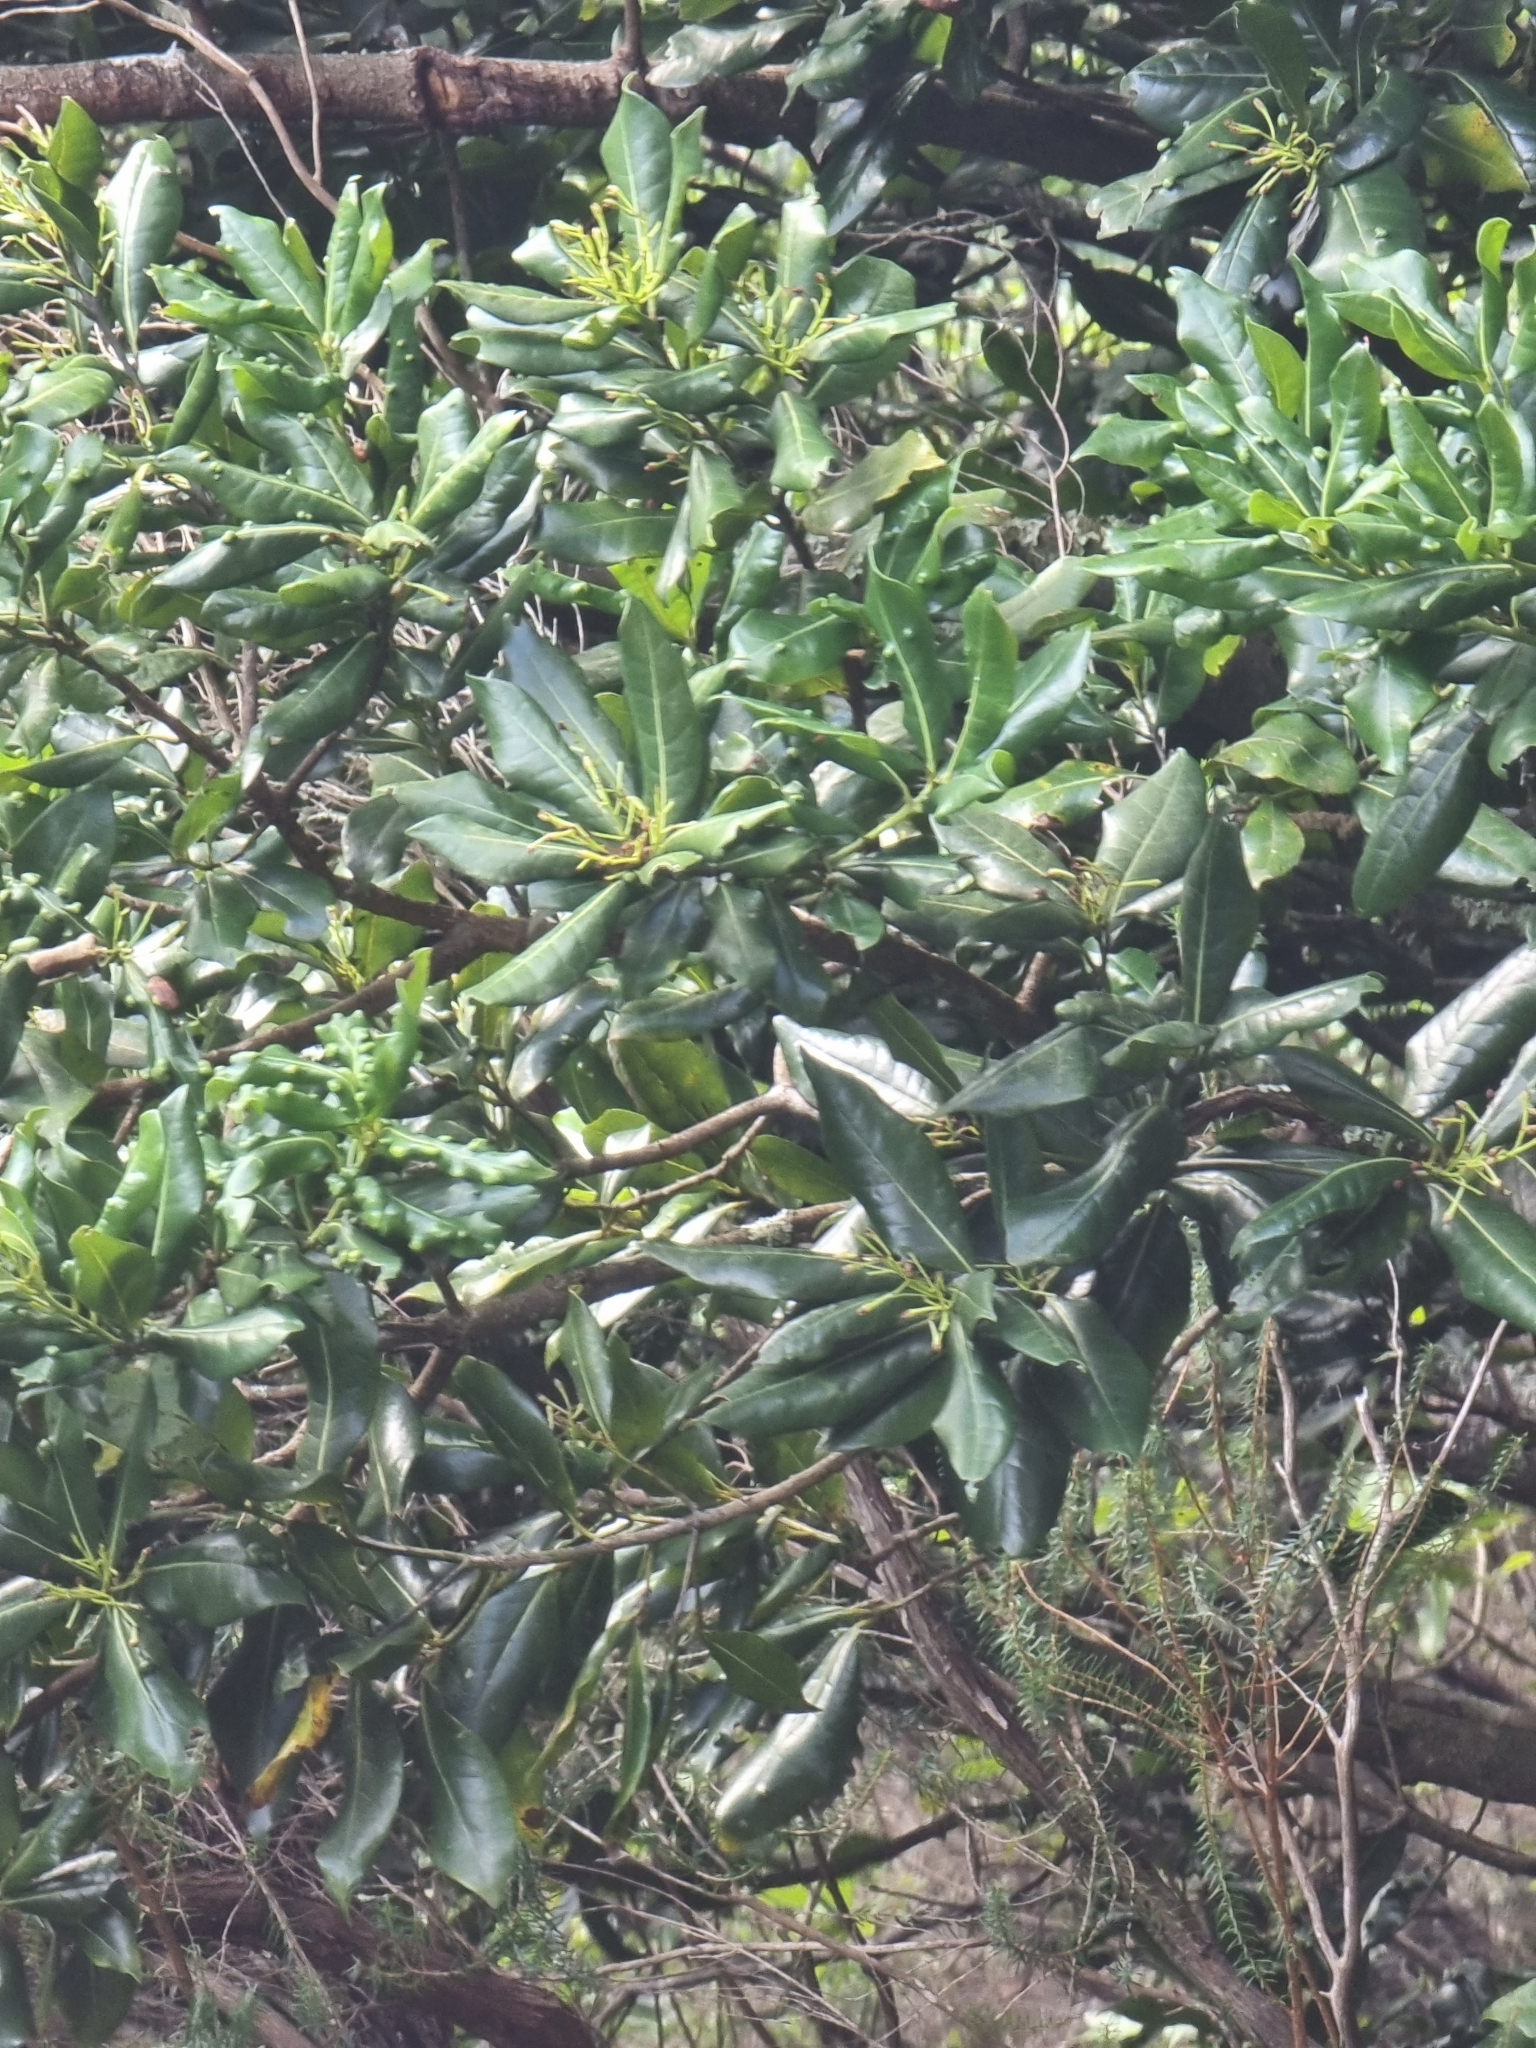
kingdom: Plantae
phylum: Tracheophyta
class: Magnoliopsida
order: Laurales
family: Lauraceae
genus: Apollonias
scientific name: Apollonias barbujana
